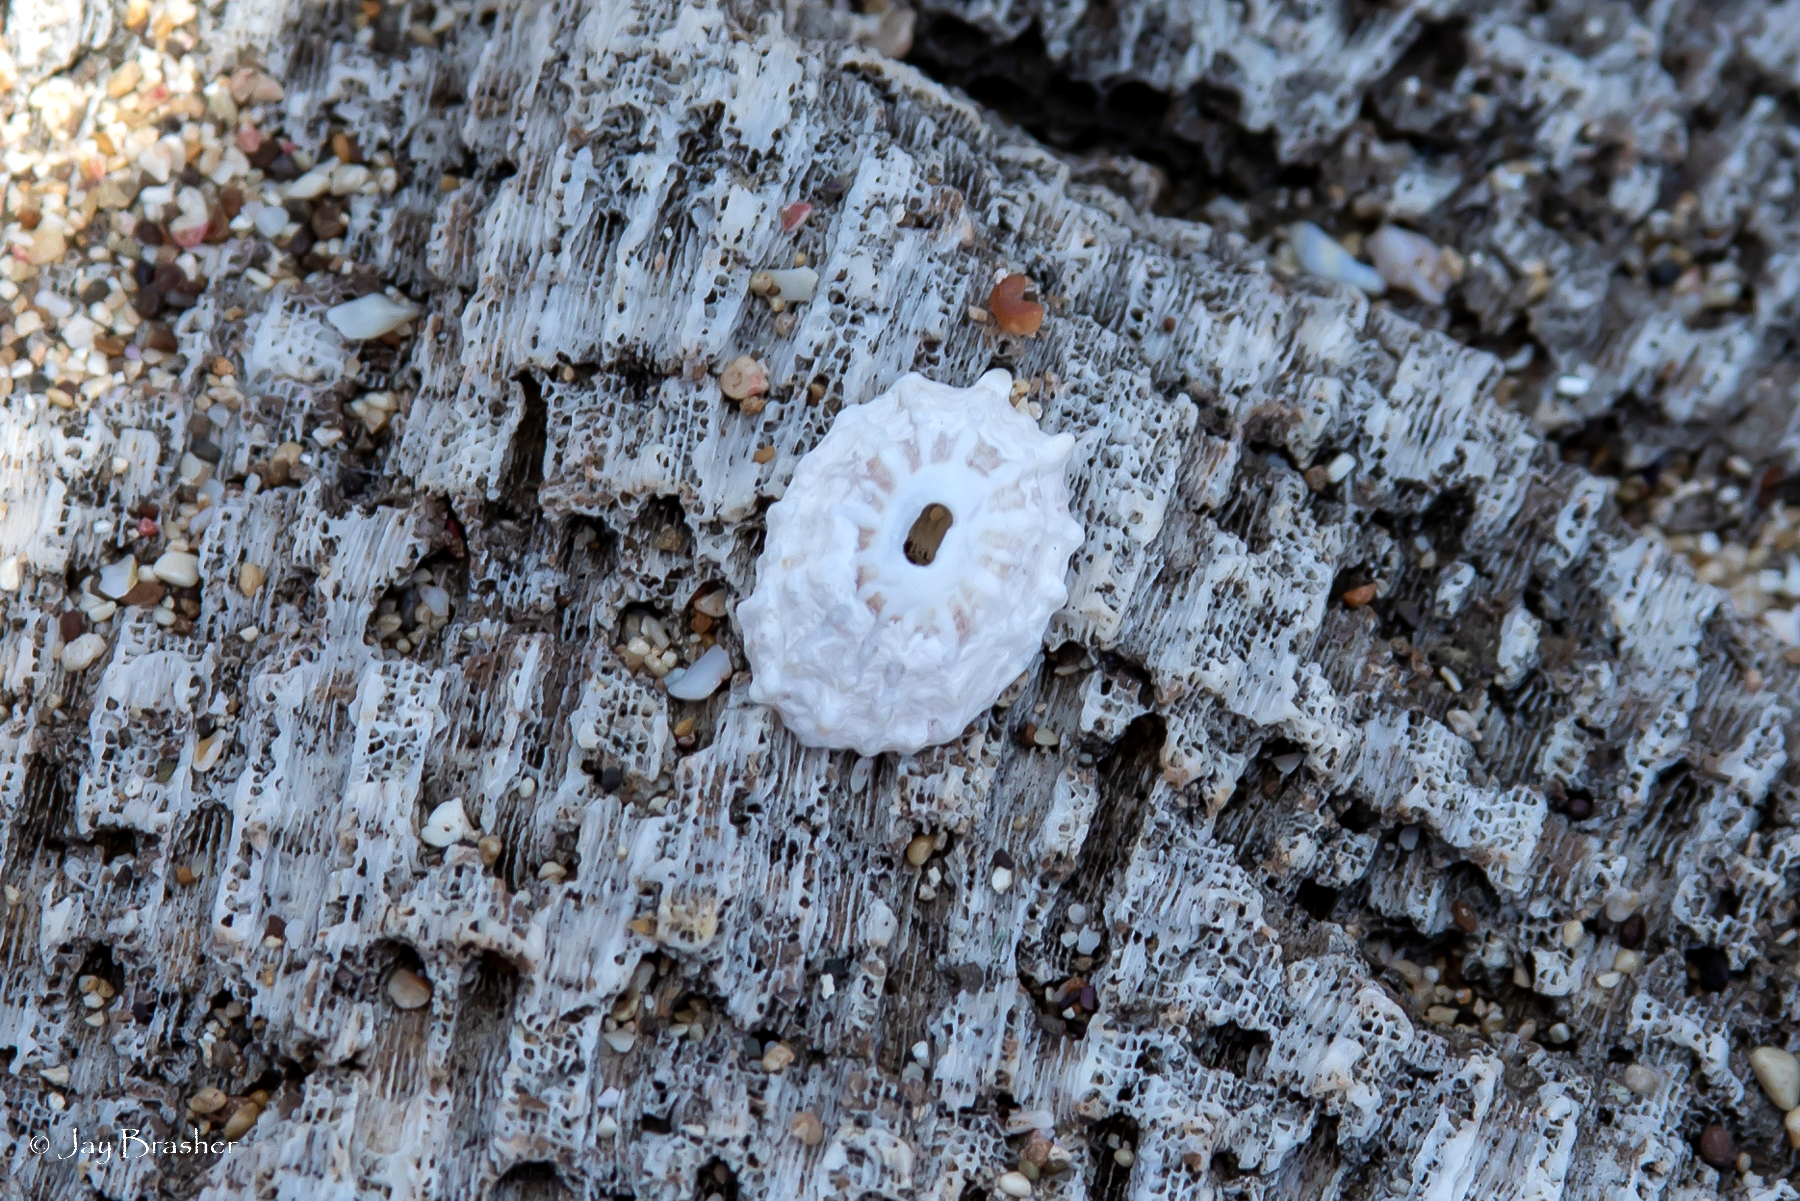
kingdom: Animalia
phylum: Mollusca
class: Gastropoda
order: Lepetellida
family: Fissurellidae
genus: Fissurella
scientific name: Fissurella nodosa
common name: Knobby keyhole limpet
